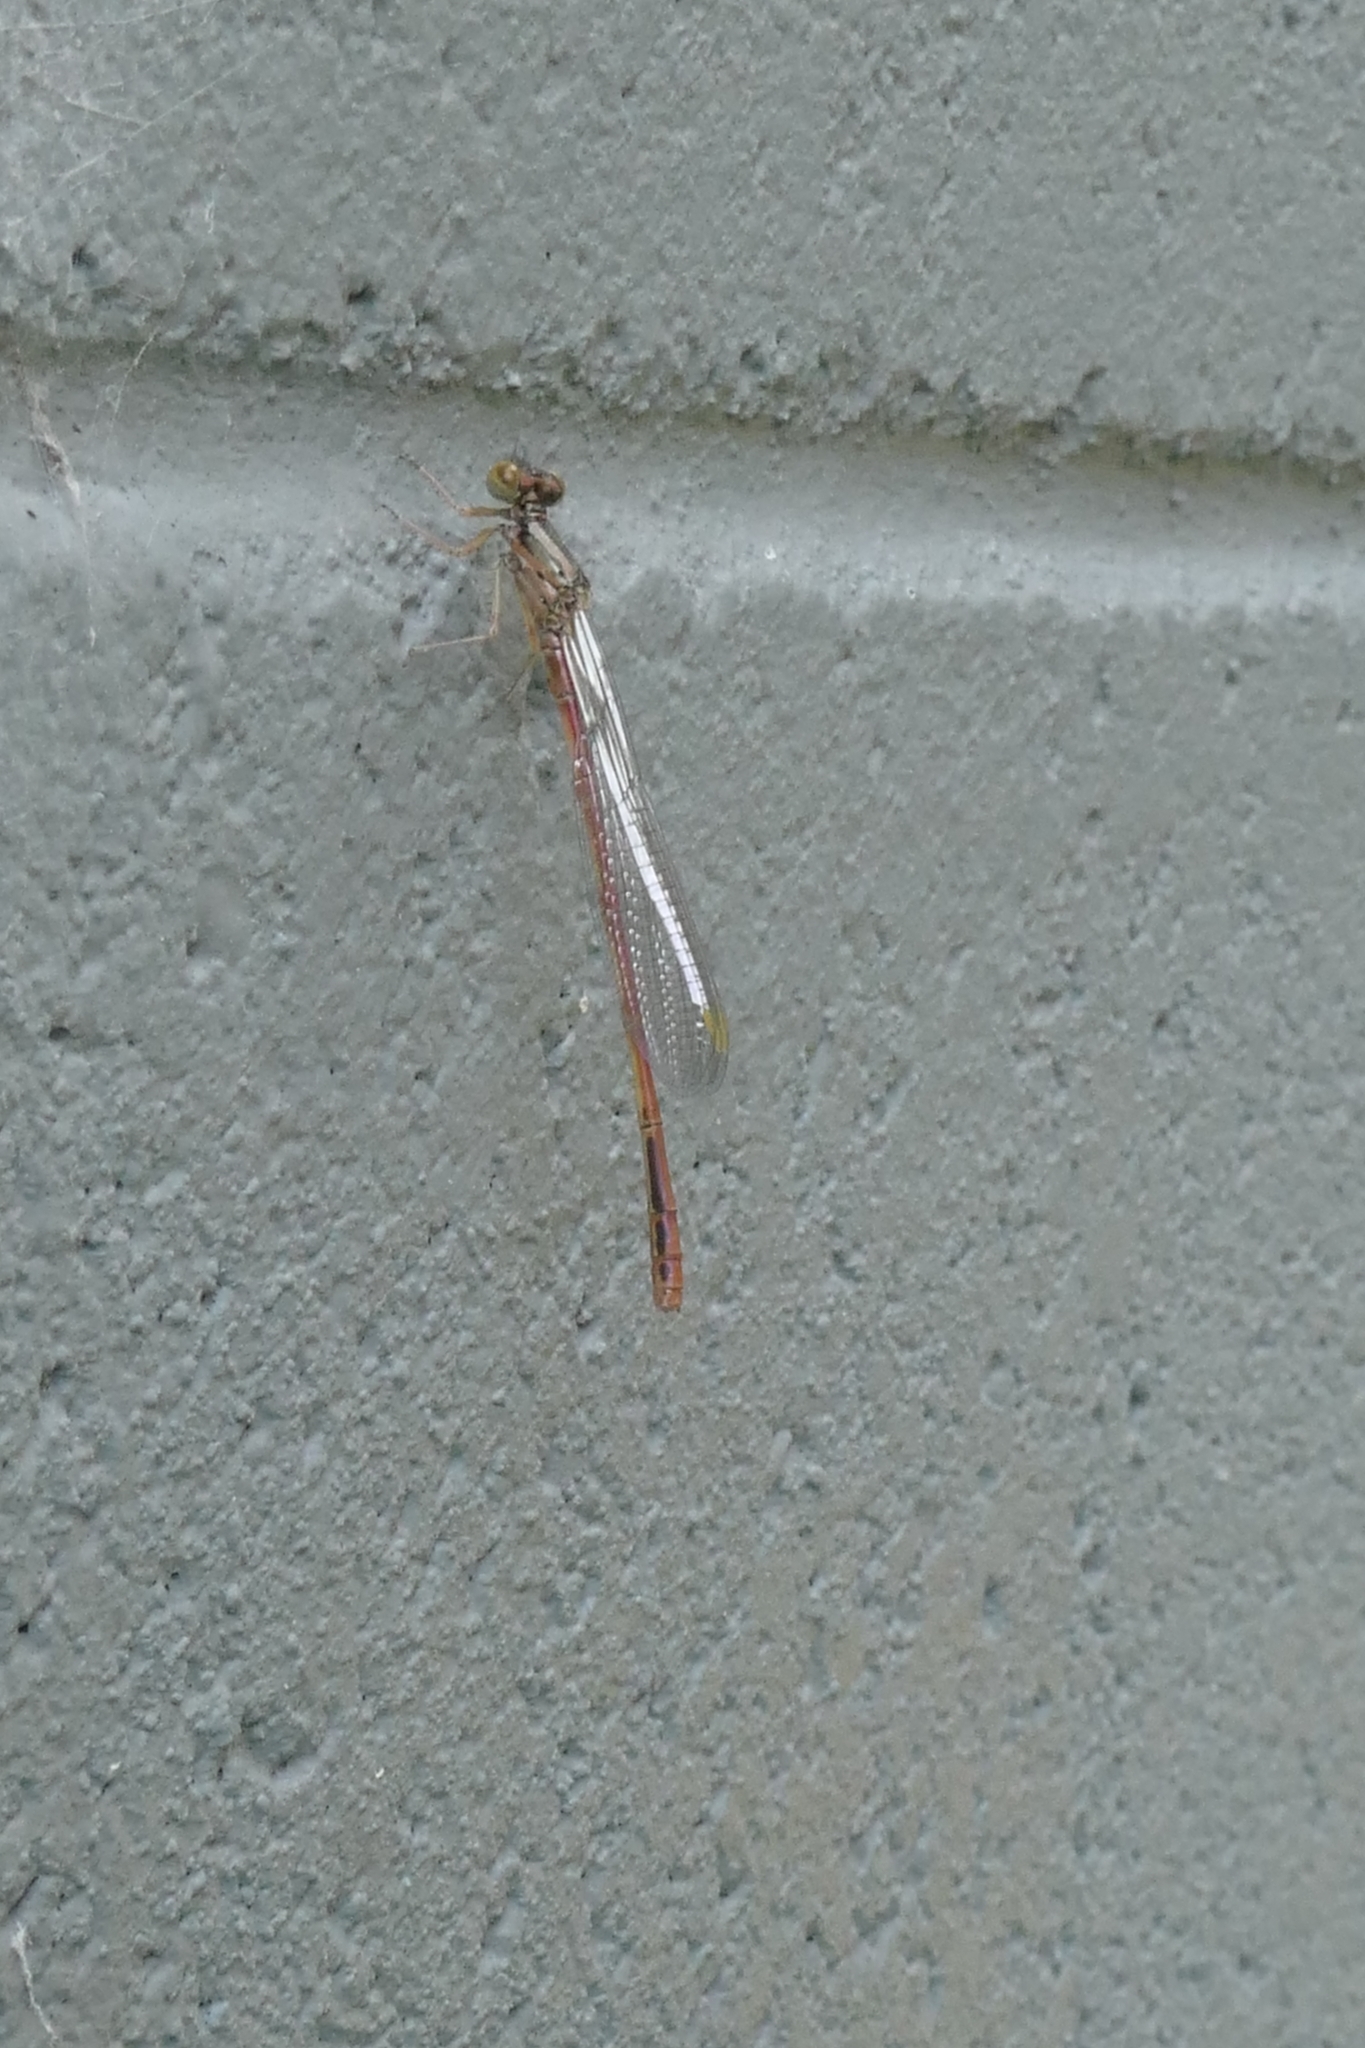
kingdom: Animalia
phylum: Arthropoda
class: Insecta
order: Odonata
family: Coenagrionidae
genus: Xanthocnemis
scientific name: Xanthocnemis zealandica
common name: Common redcoat damselfly
